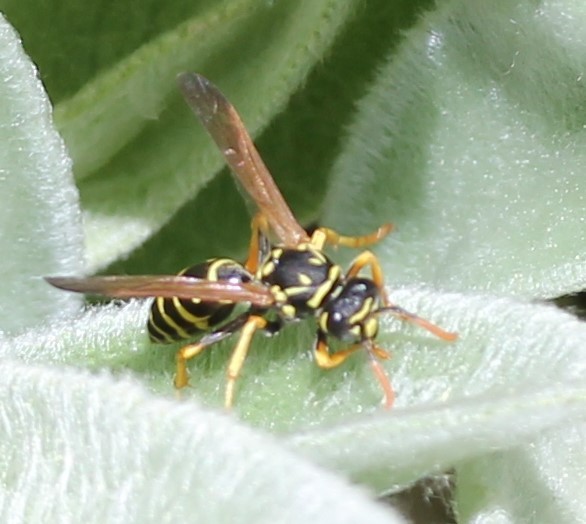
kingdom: Animalia
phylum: Arthropoda
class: Insecta
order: Hymenoptera
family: Eumenidae
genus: Polistes
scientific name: Polistes dominula
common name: Paper wasp
